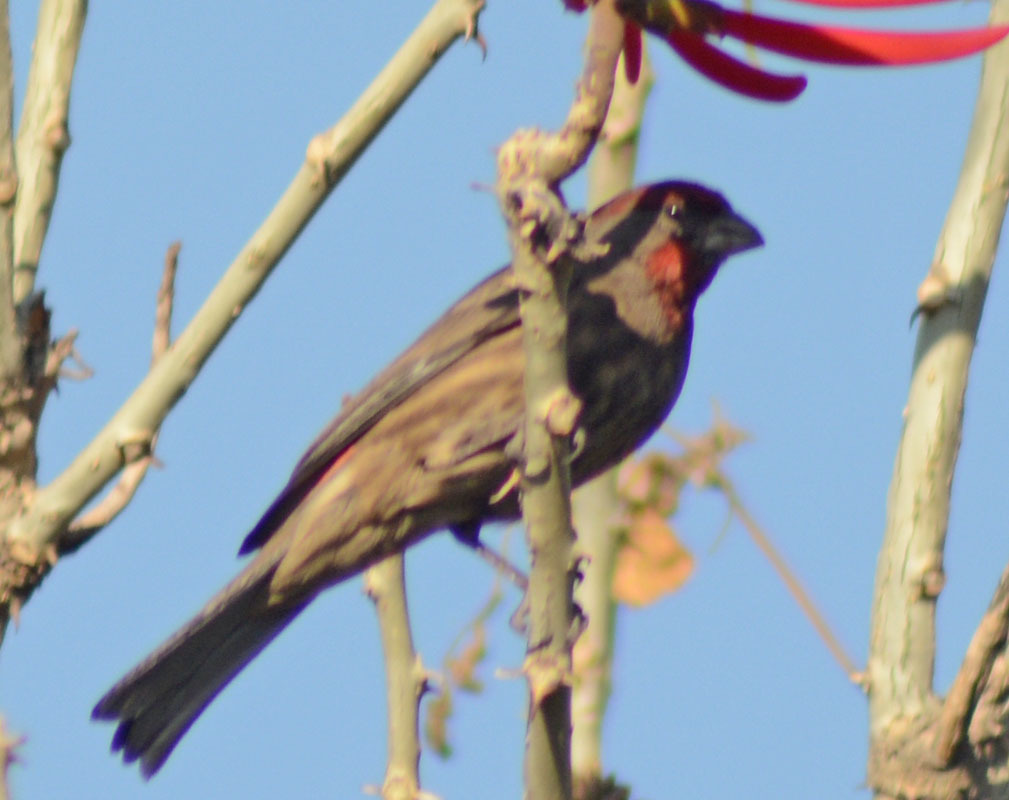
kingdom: Animalia
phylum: Chordata
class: Aves
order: Passeriformes
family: Fringillidae
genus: Haemorhous
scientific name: Haemorhous mexicanus
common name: House finch
